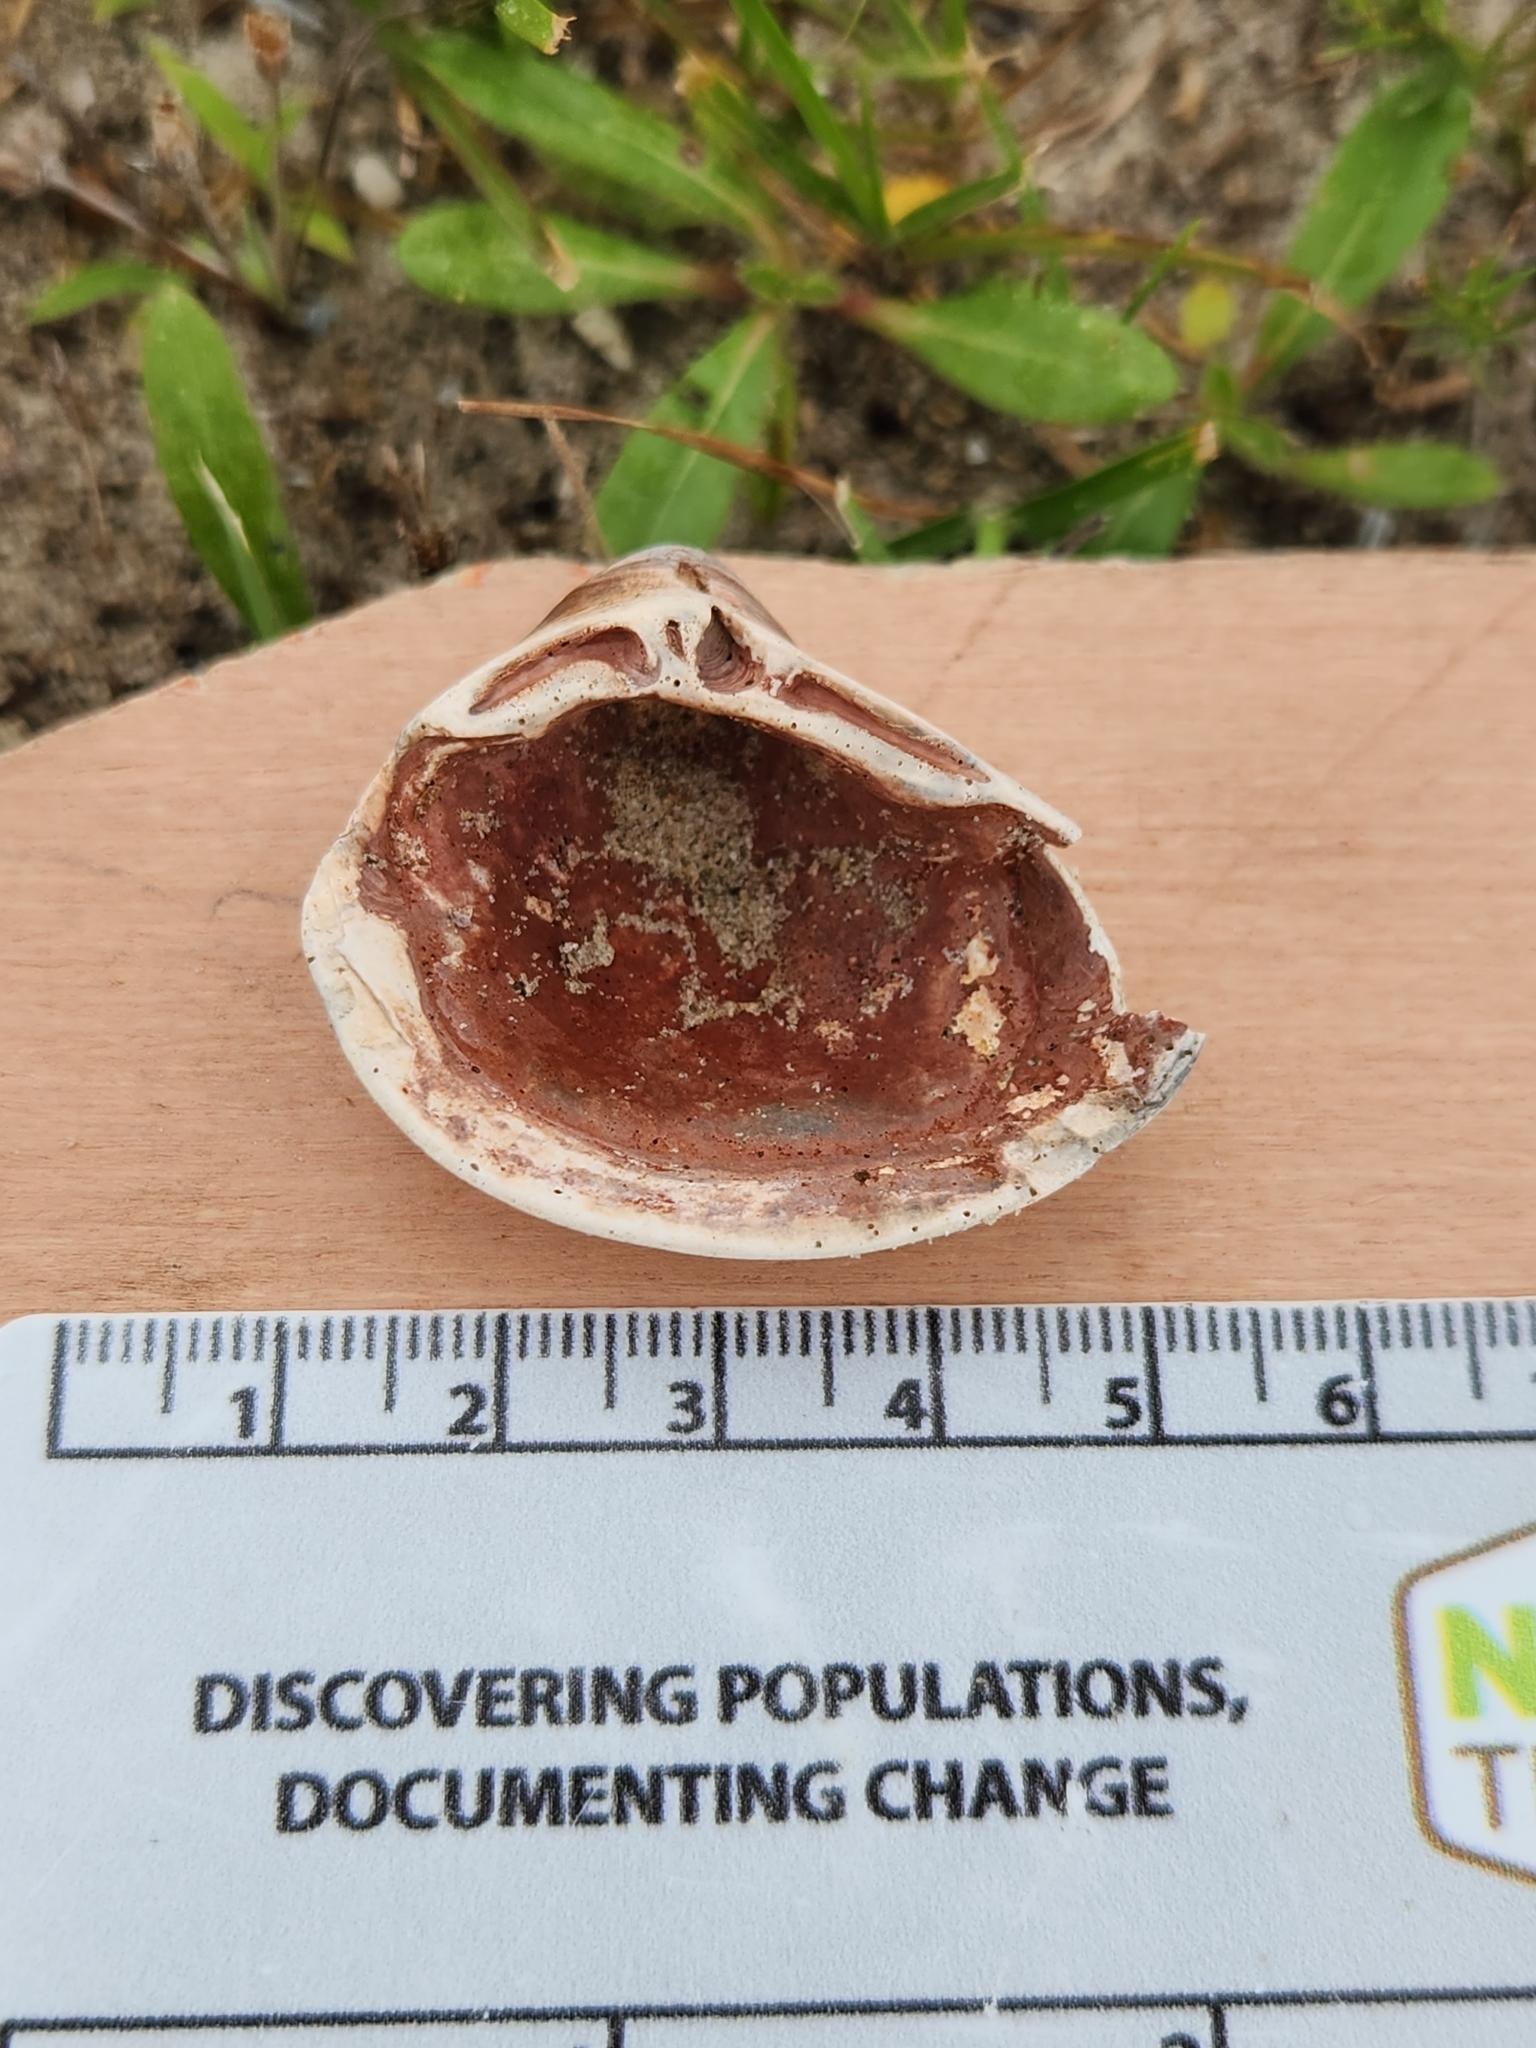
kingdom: Animalia
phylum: Mollusca
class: Bivalvia
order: Venerida
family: Mactridae
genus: Rangia
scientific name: Rangia cuneata
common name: Atlantic rangia
